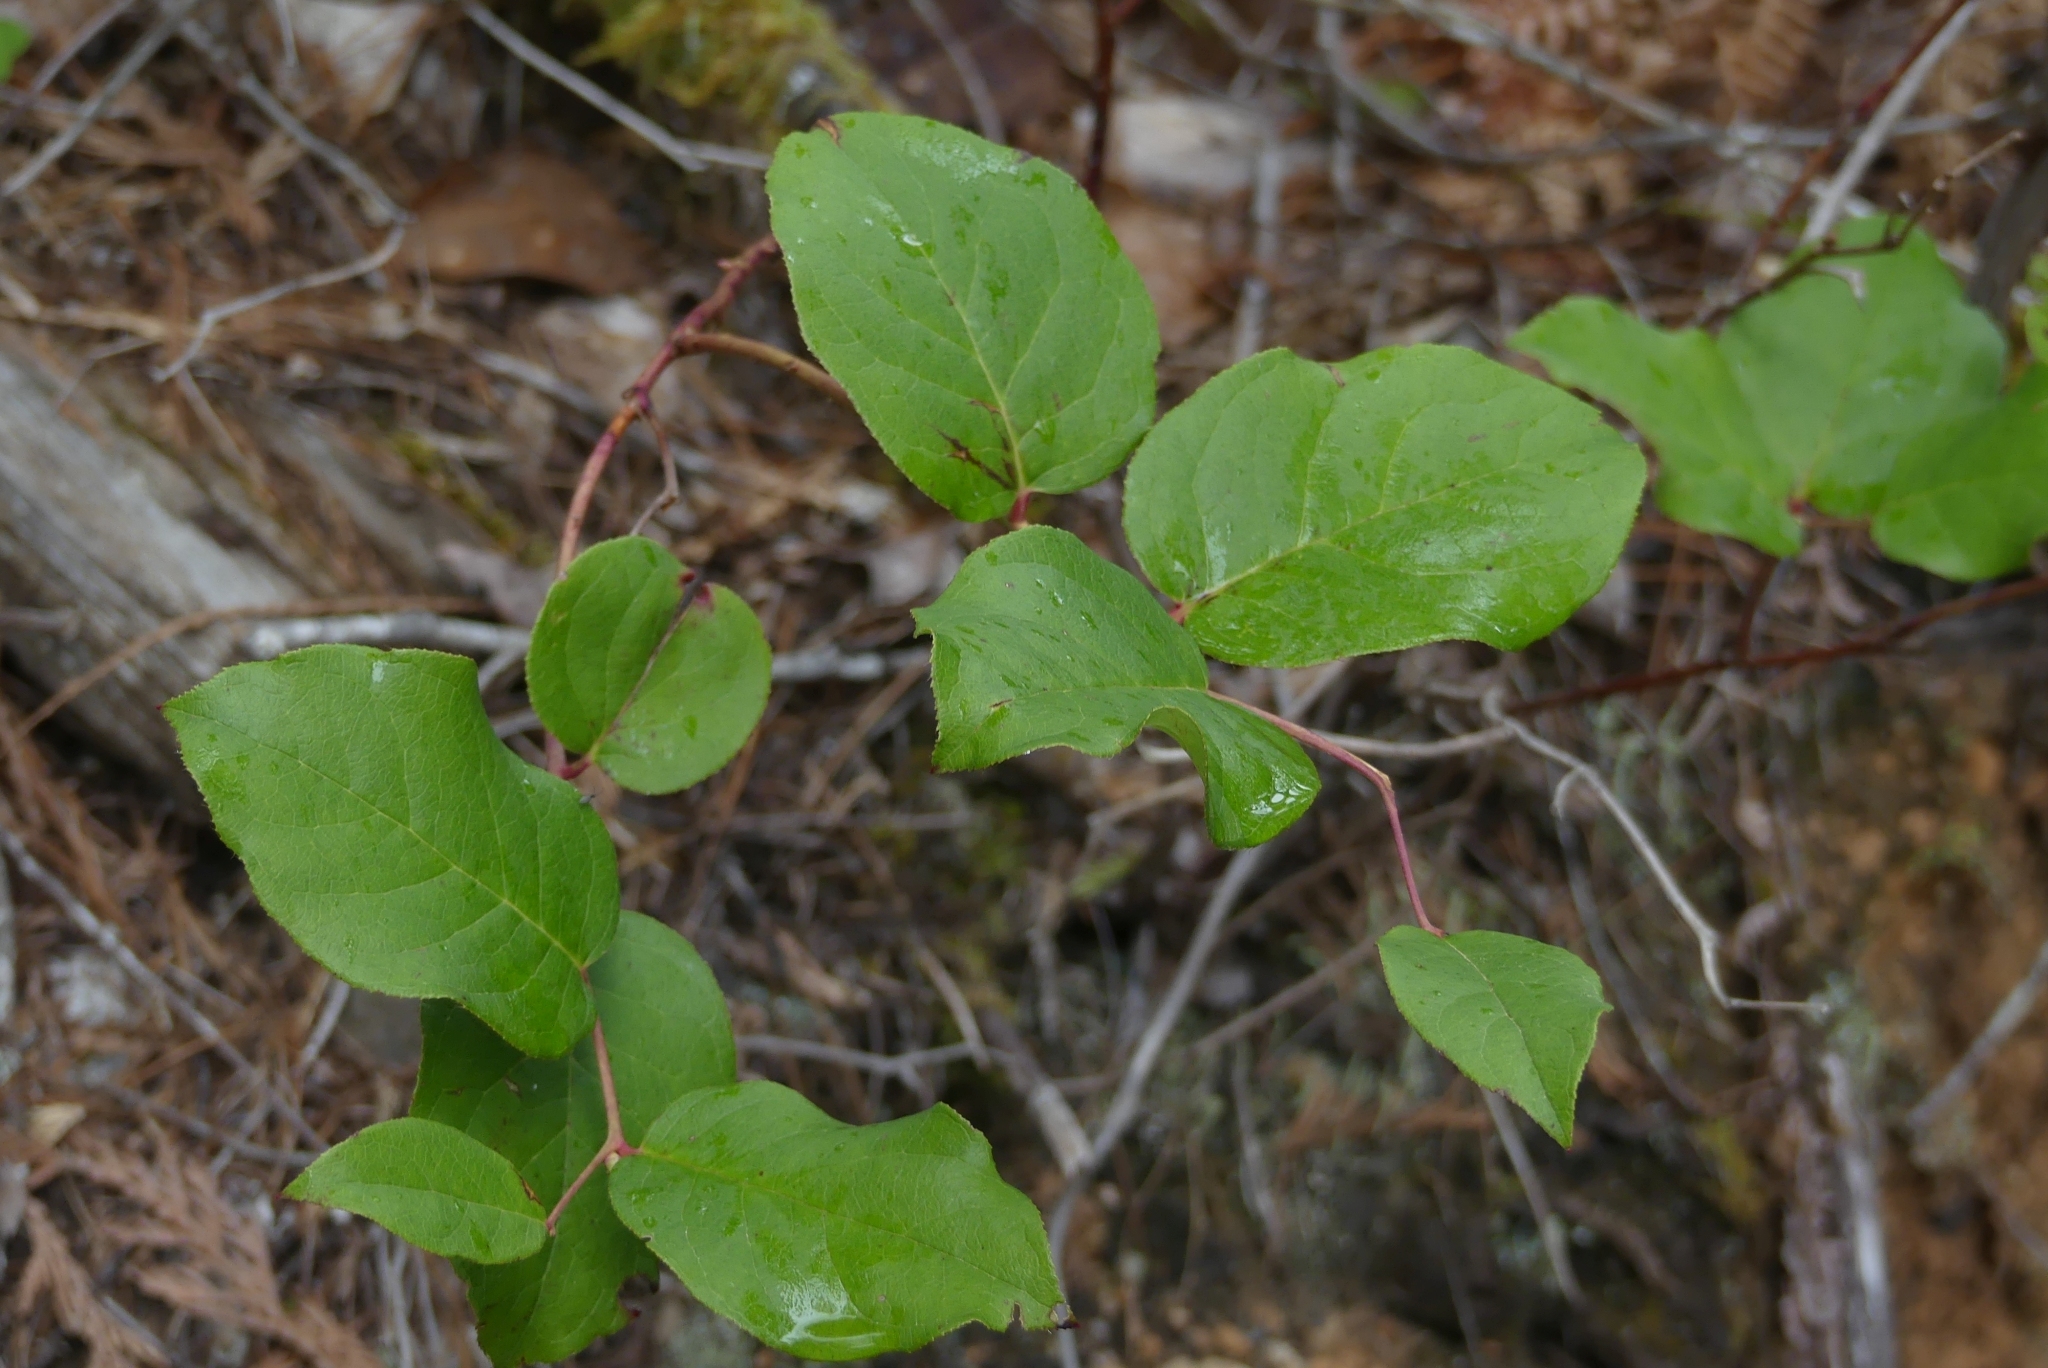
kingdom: Plantae
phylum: Tracheophyta
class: Magnoliopsida
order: Ericales
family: Ericaceae
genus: Gaultheria
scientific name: Gaultheria shallon
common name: Shallon
